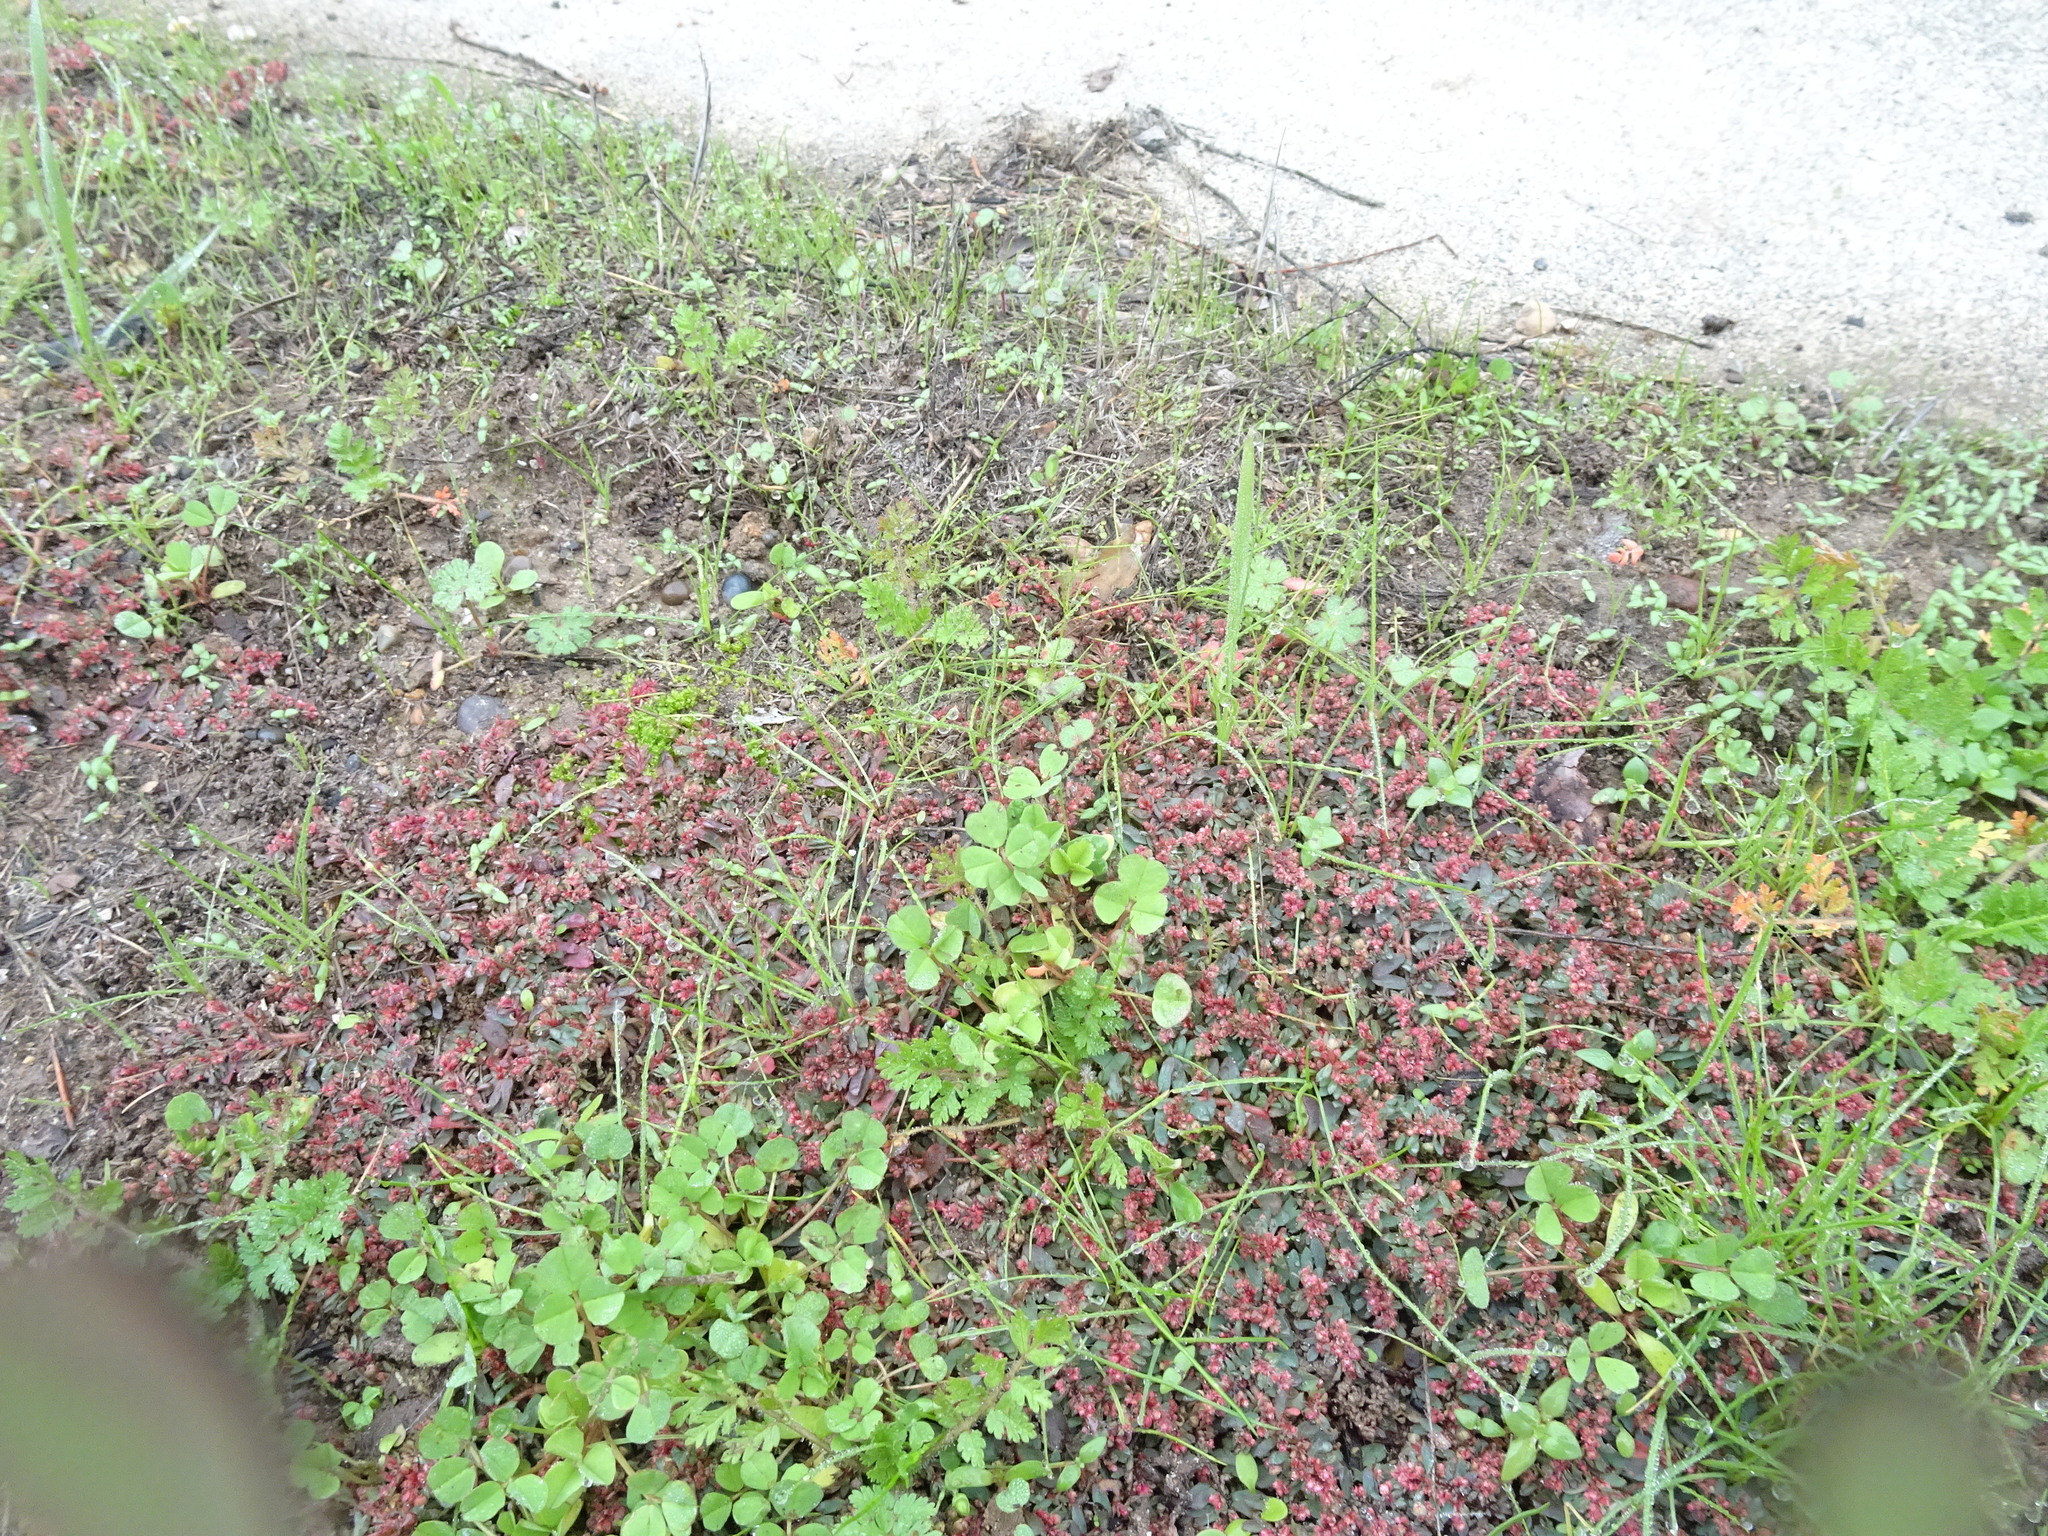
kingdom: Plantae
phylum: Tracheophyta
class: Magnoliopsida
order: Malpighiales
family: Euphorbiaceae
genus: Euphorbia
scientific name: Euphorbia maculata
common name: Spotted spurge
